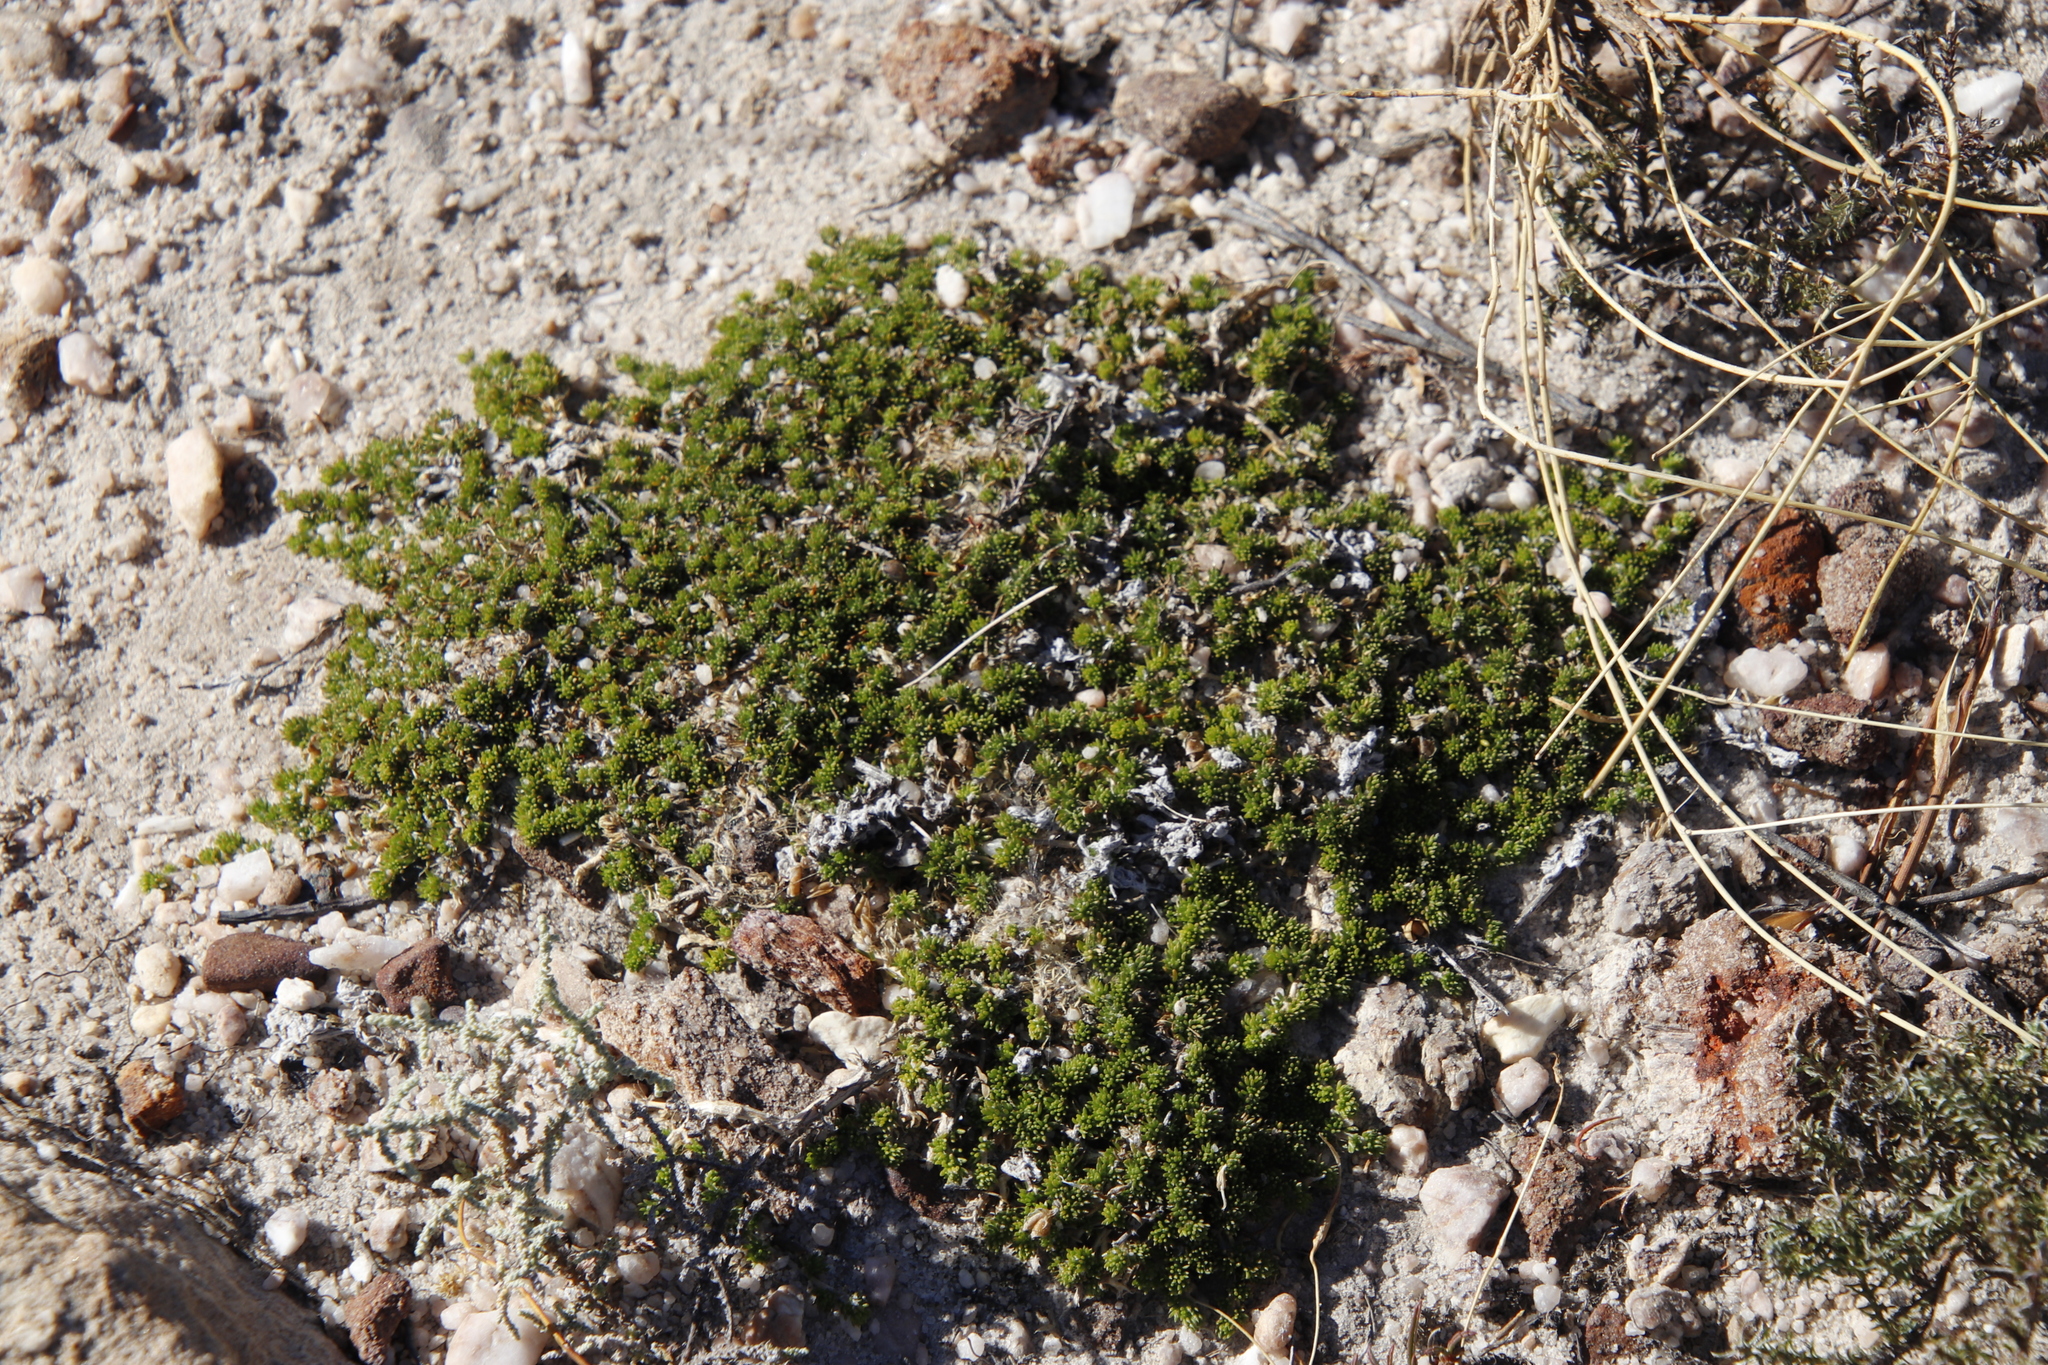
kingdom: Plantae
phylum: Tracheophyta
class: Magnoliopsida
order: Fabales
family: Fabaceae
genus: Aspalathus
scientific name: Aspalathus brevicarpa
